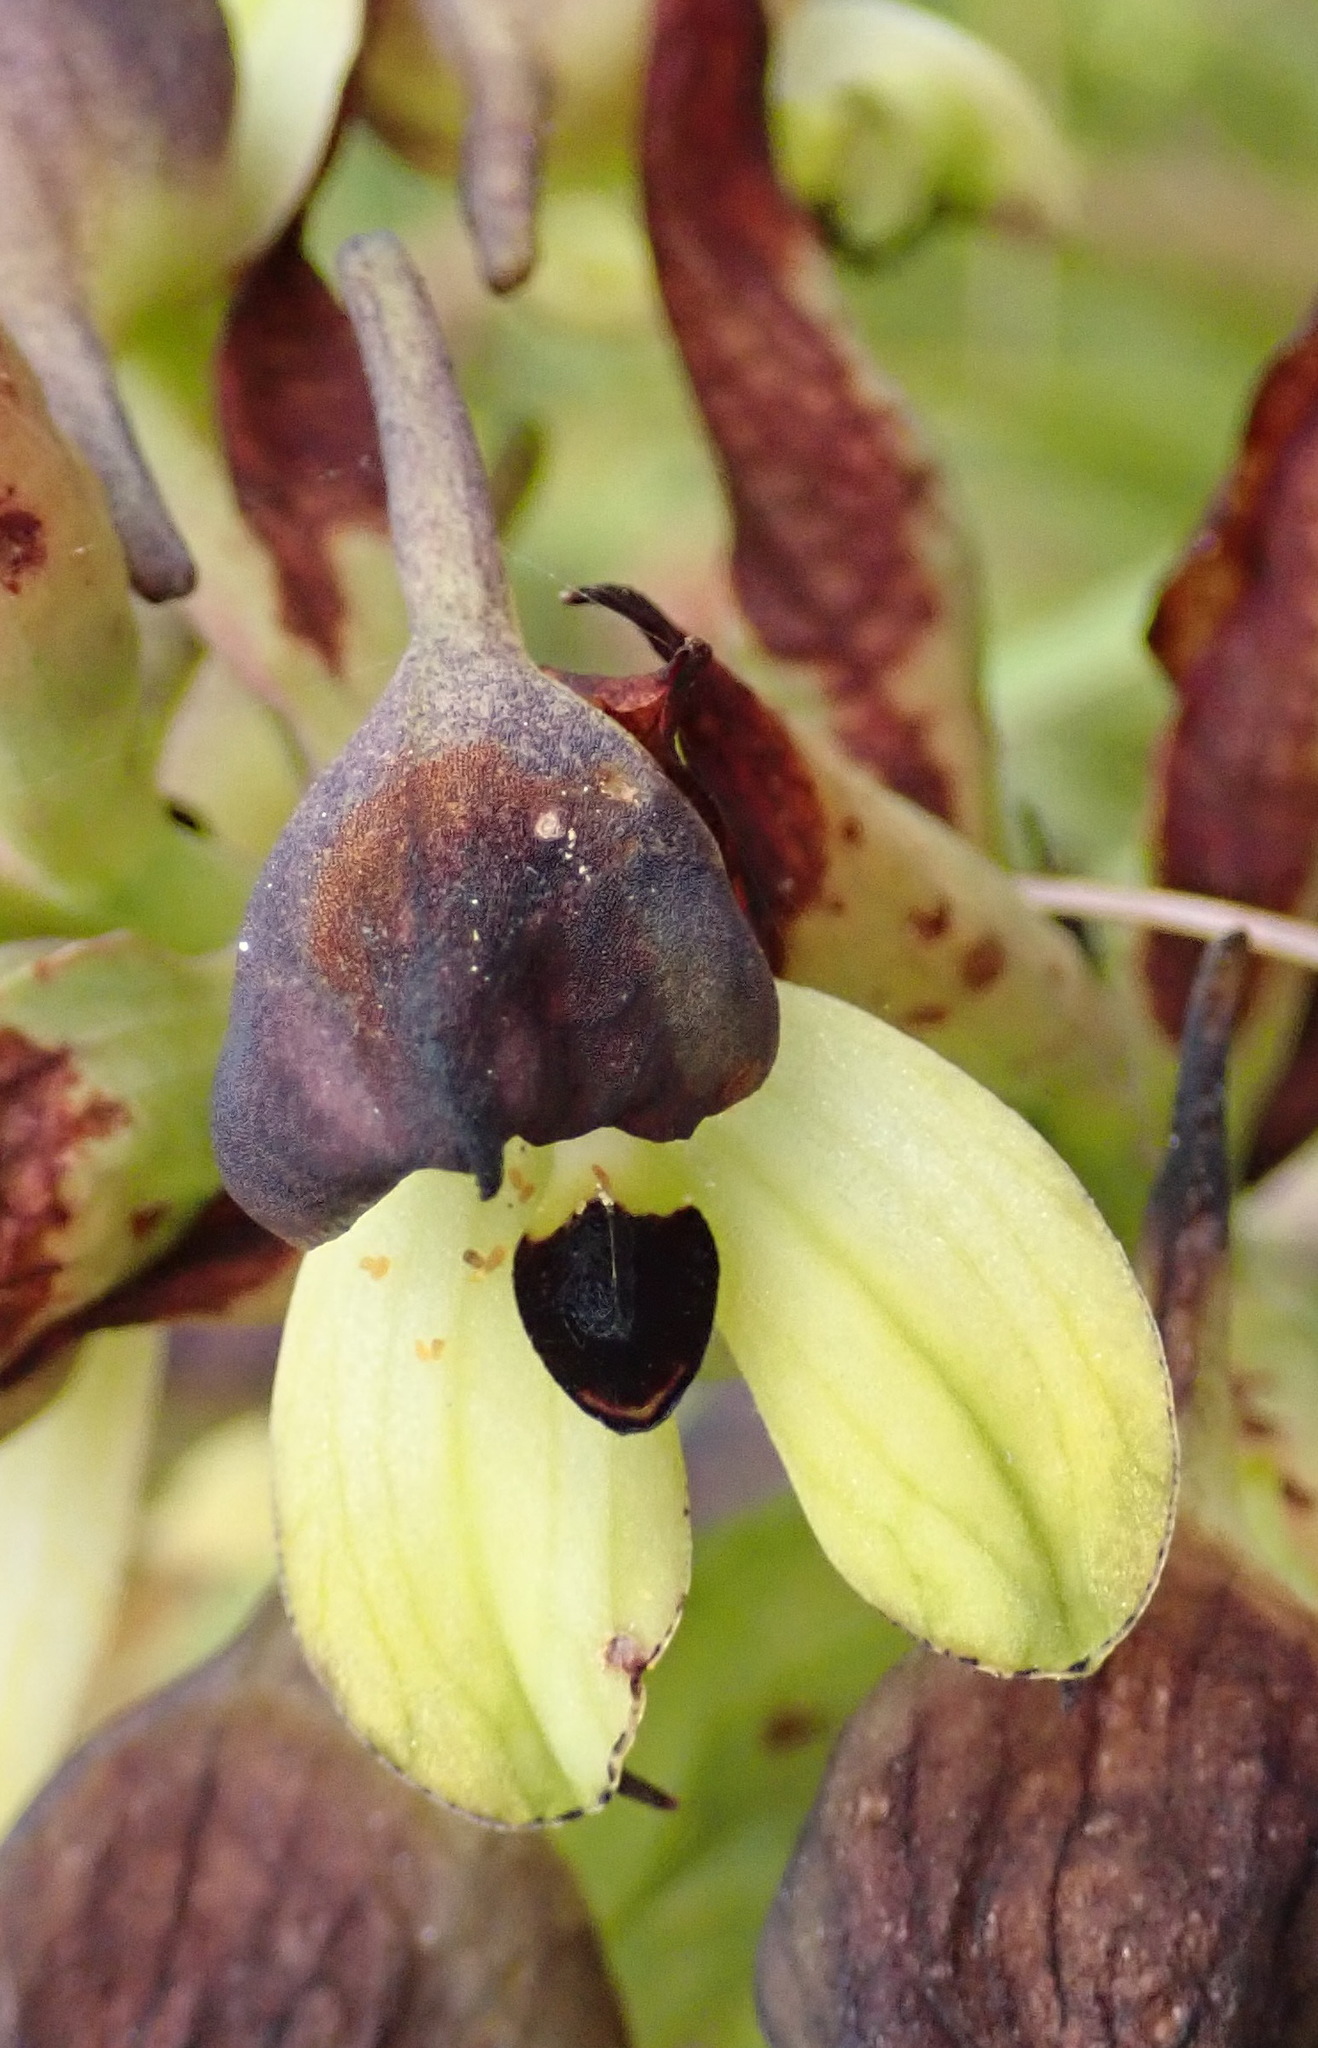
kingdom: Plantae
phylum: Tracheophyta
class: Liliopsida
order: Asparagales
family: Orchidaceae
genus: Disa
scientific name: Disa cornuta
